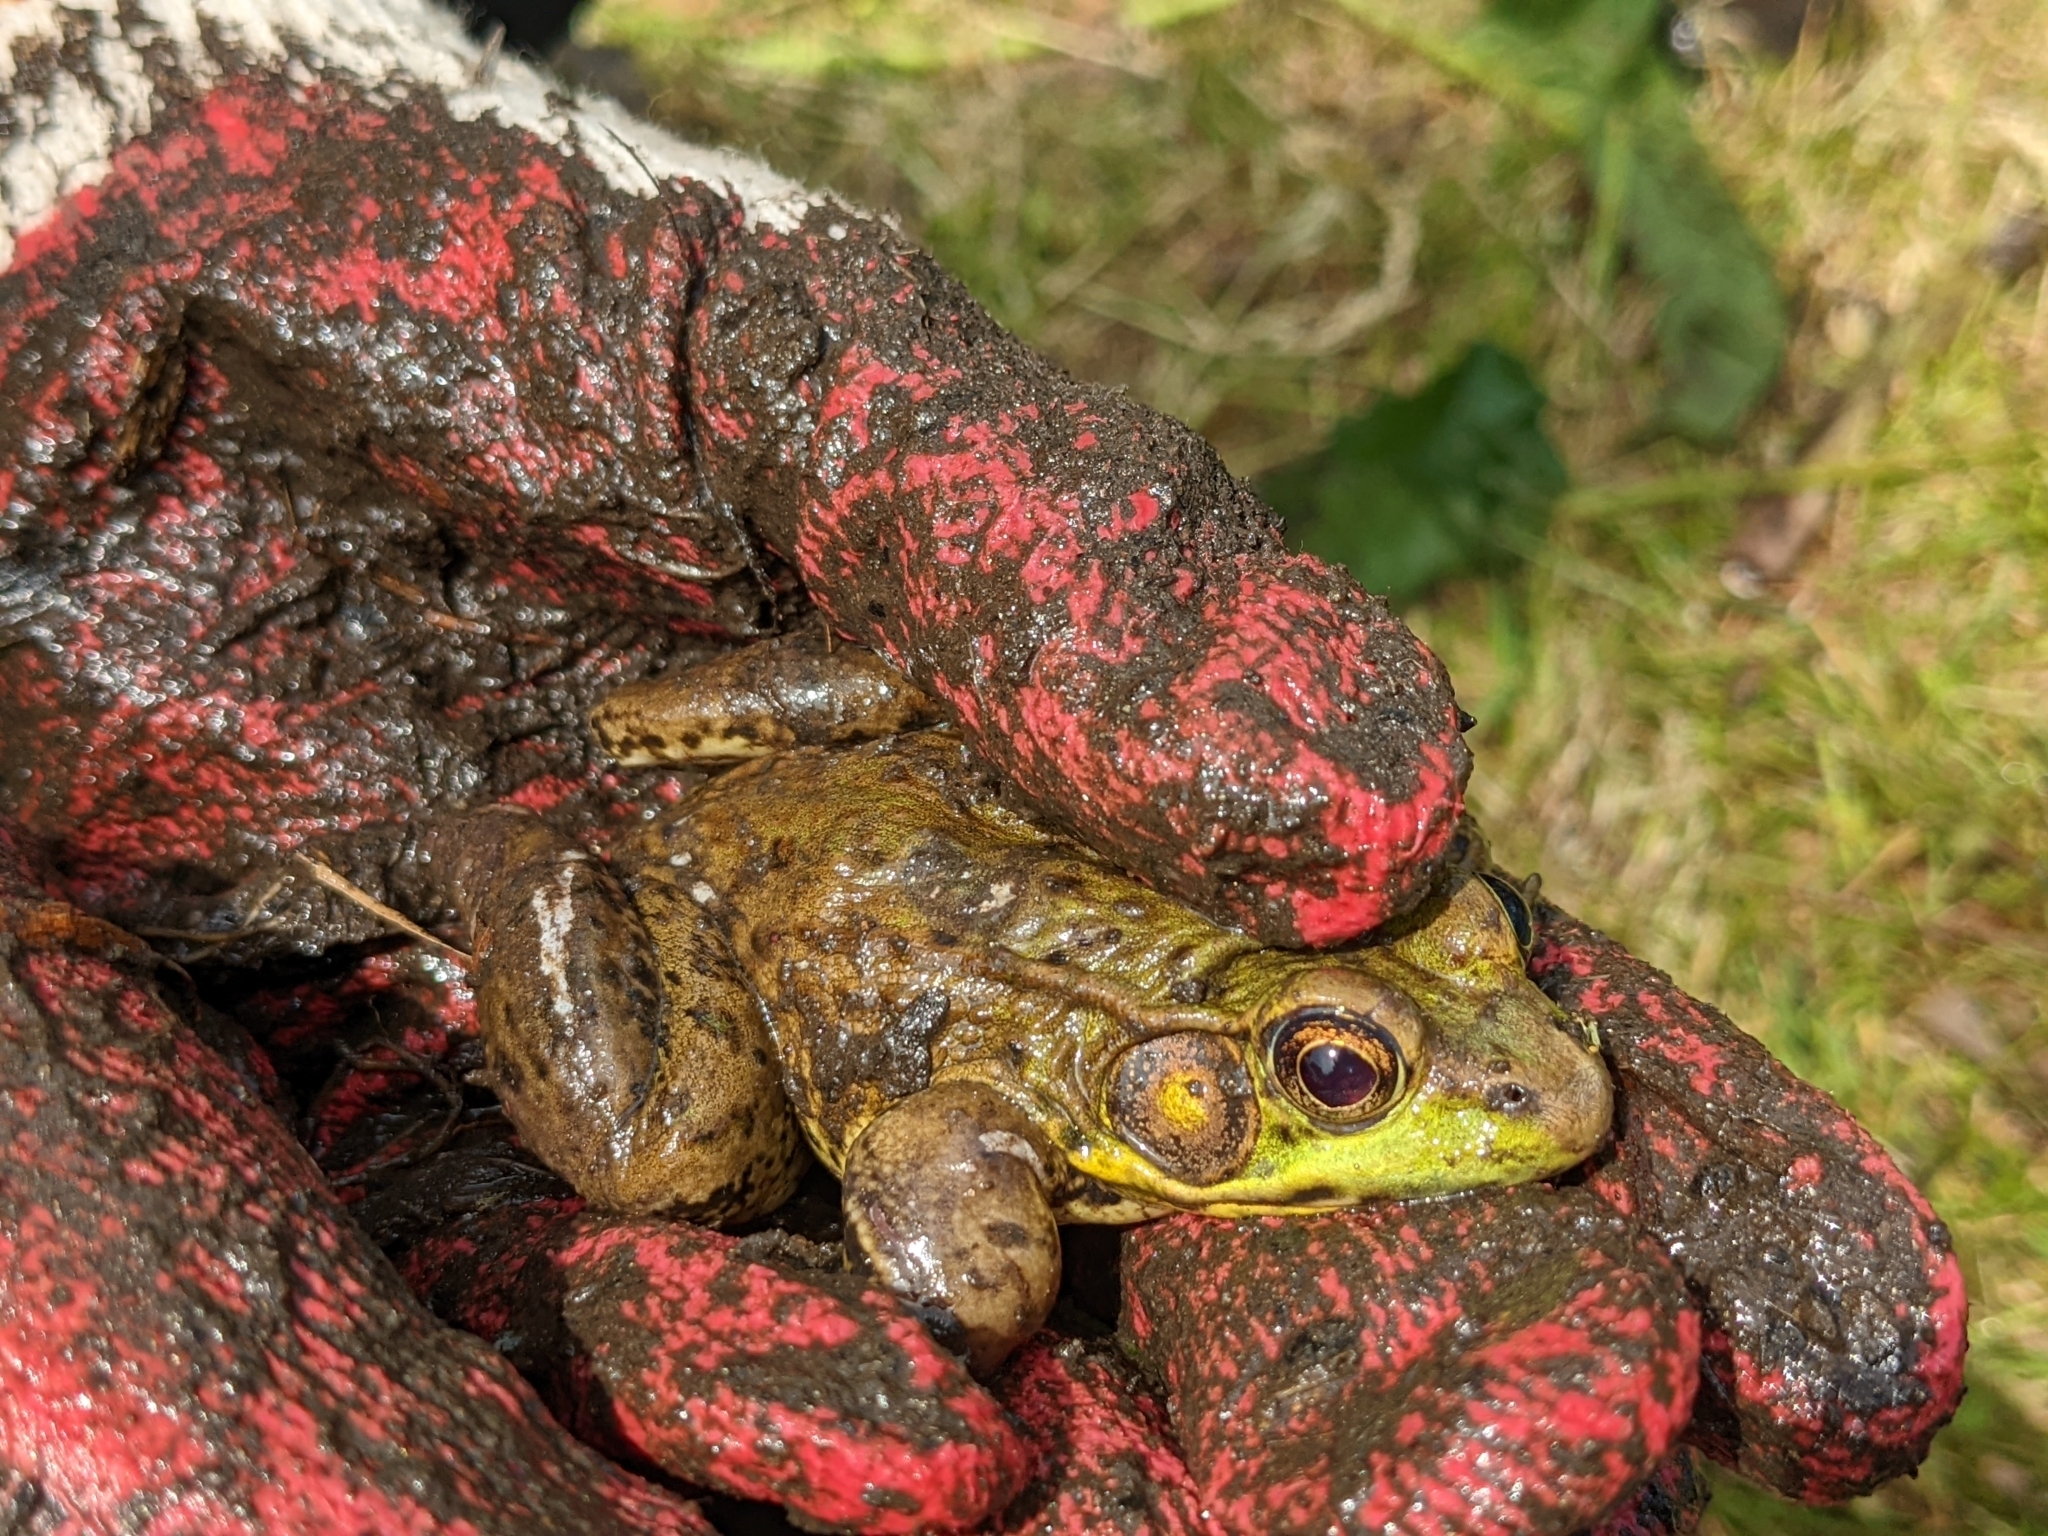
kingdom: Animalia
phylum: Chordata
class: Amphibia
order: Anura
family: Ranidae
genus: Lithobates
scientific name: Lithobates clamitans
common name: Green frog
